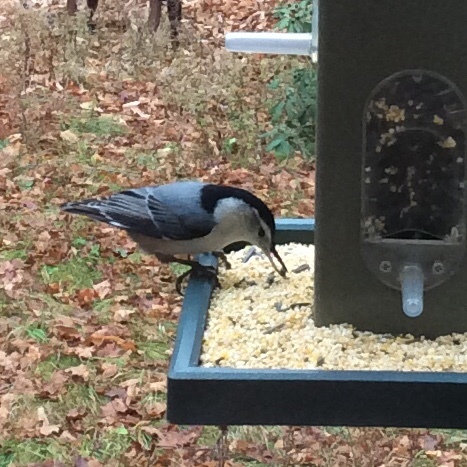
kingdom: Animalia
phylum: Chordata
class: Aves
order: Passeriformes
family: Sittidae
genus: Sitta
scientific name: Sitta carolinensis
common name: White-breasted nuthatch
